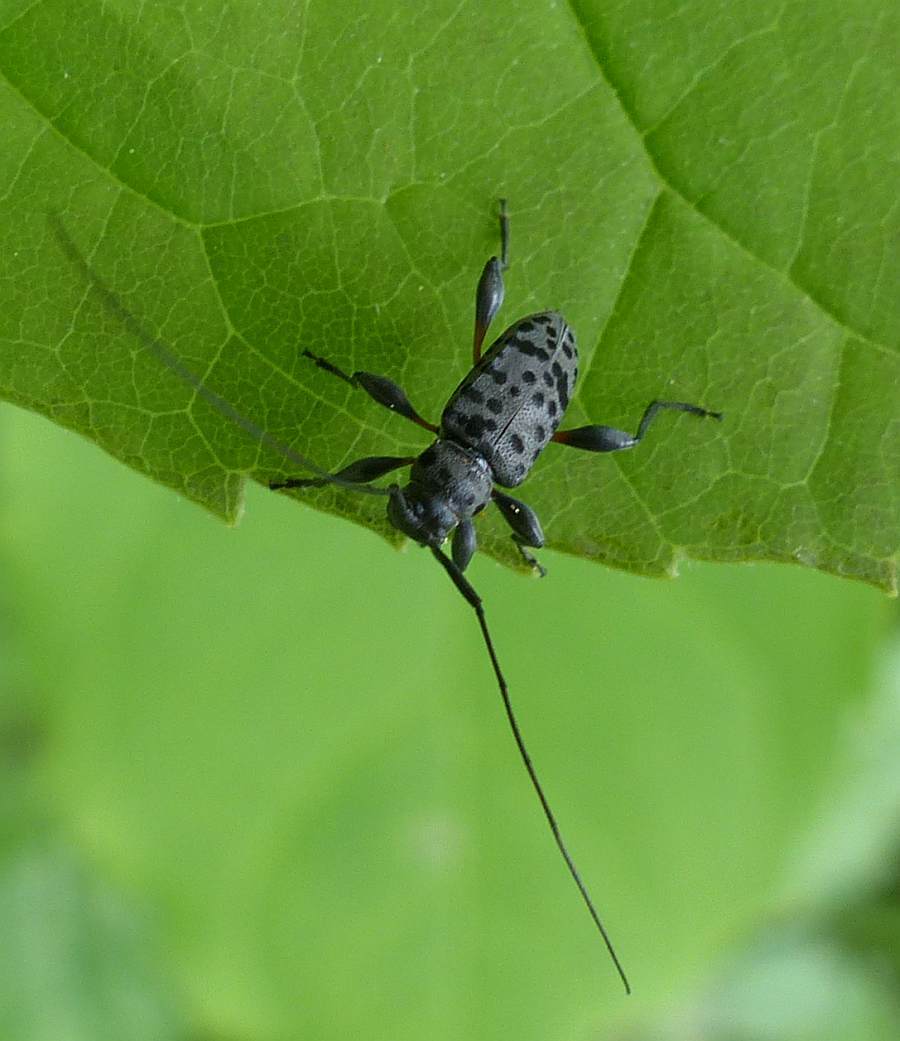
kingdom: Animalia
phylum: Arthropoda
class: Insecta
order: Coleoptera
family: Cerambycidae
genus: Hyperplatys
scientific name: Hyperplatys aspersa
